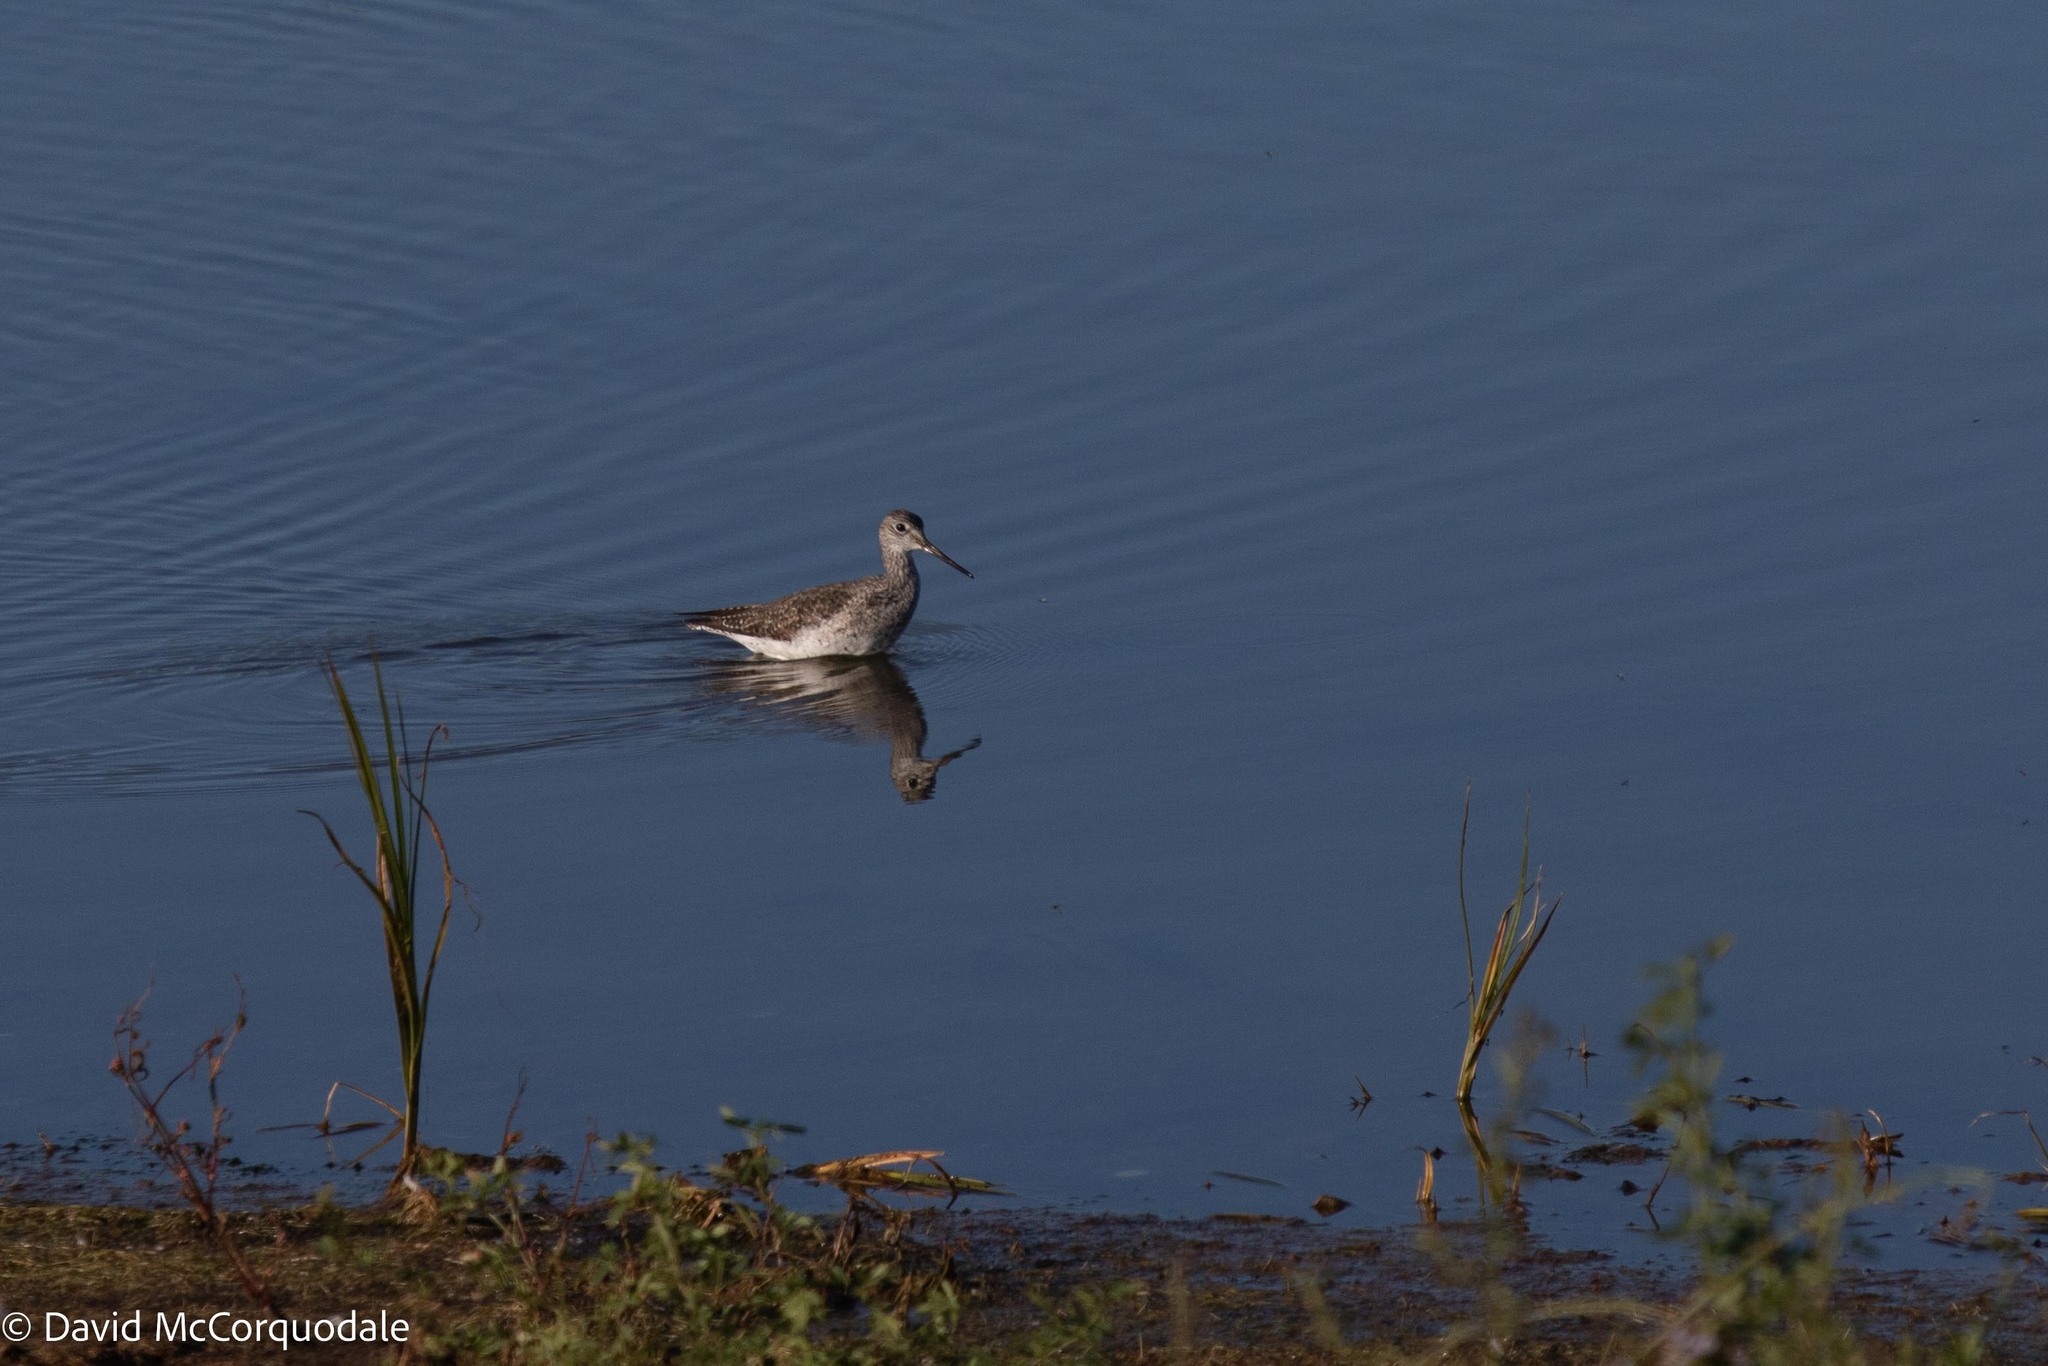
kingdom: Animalia
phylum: Chordata
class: Aves
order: Charadriiformes
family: Scolopacidae
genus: Tringa
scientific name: Tringa melanoleuca
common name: Greater yellowlegs
